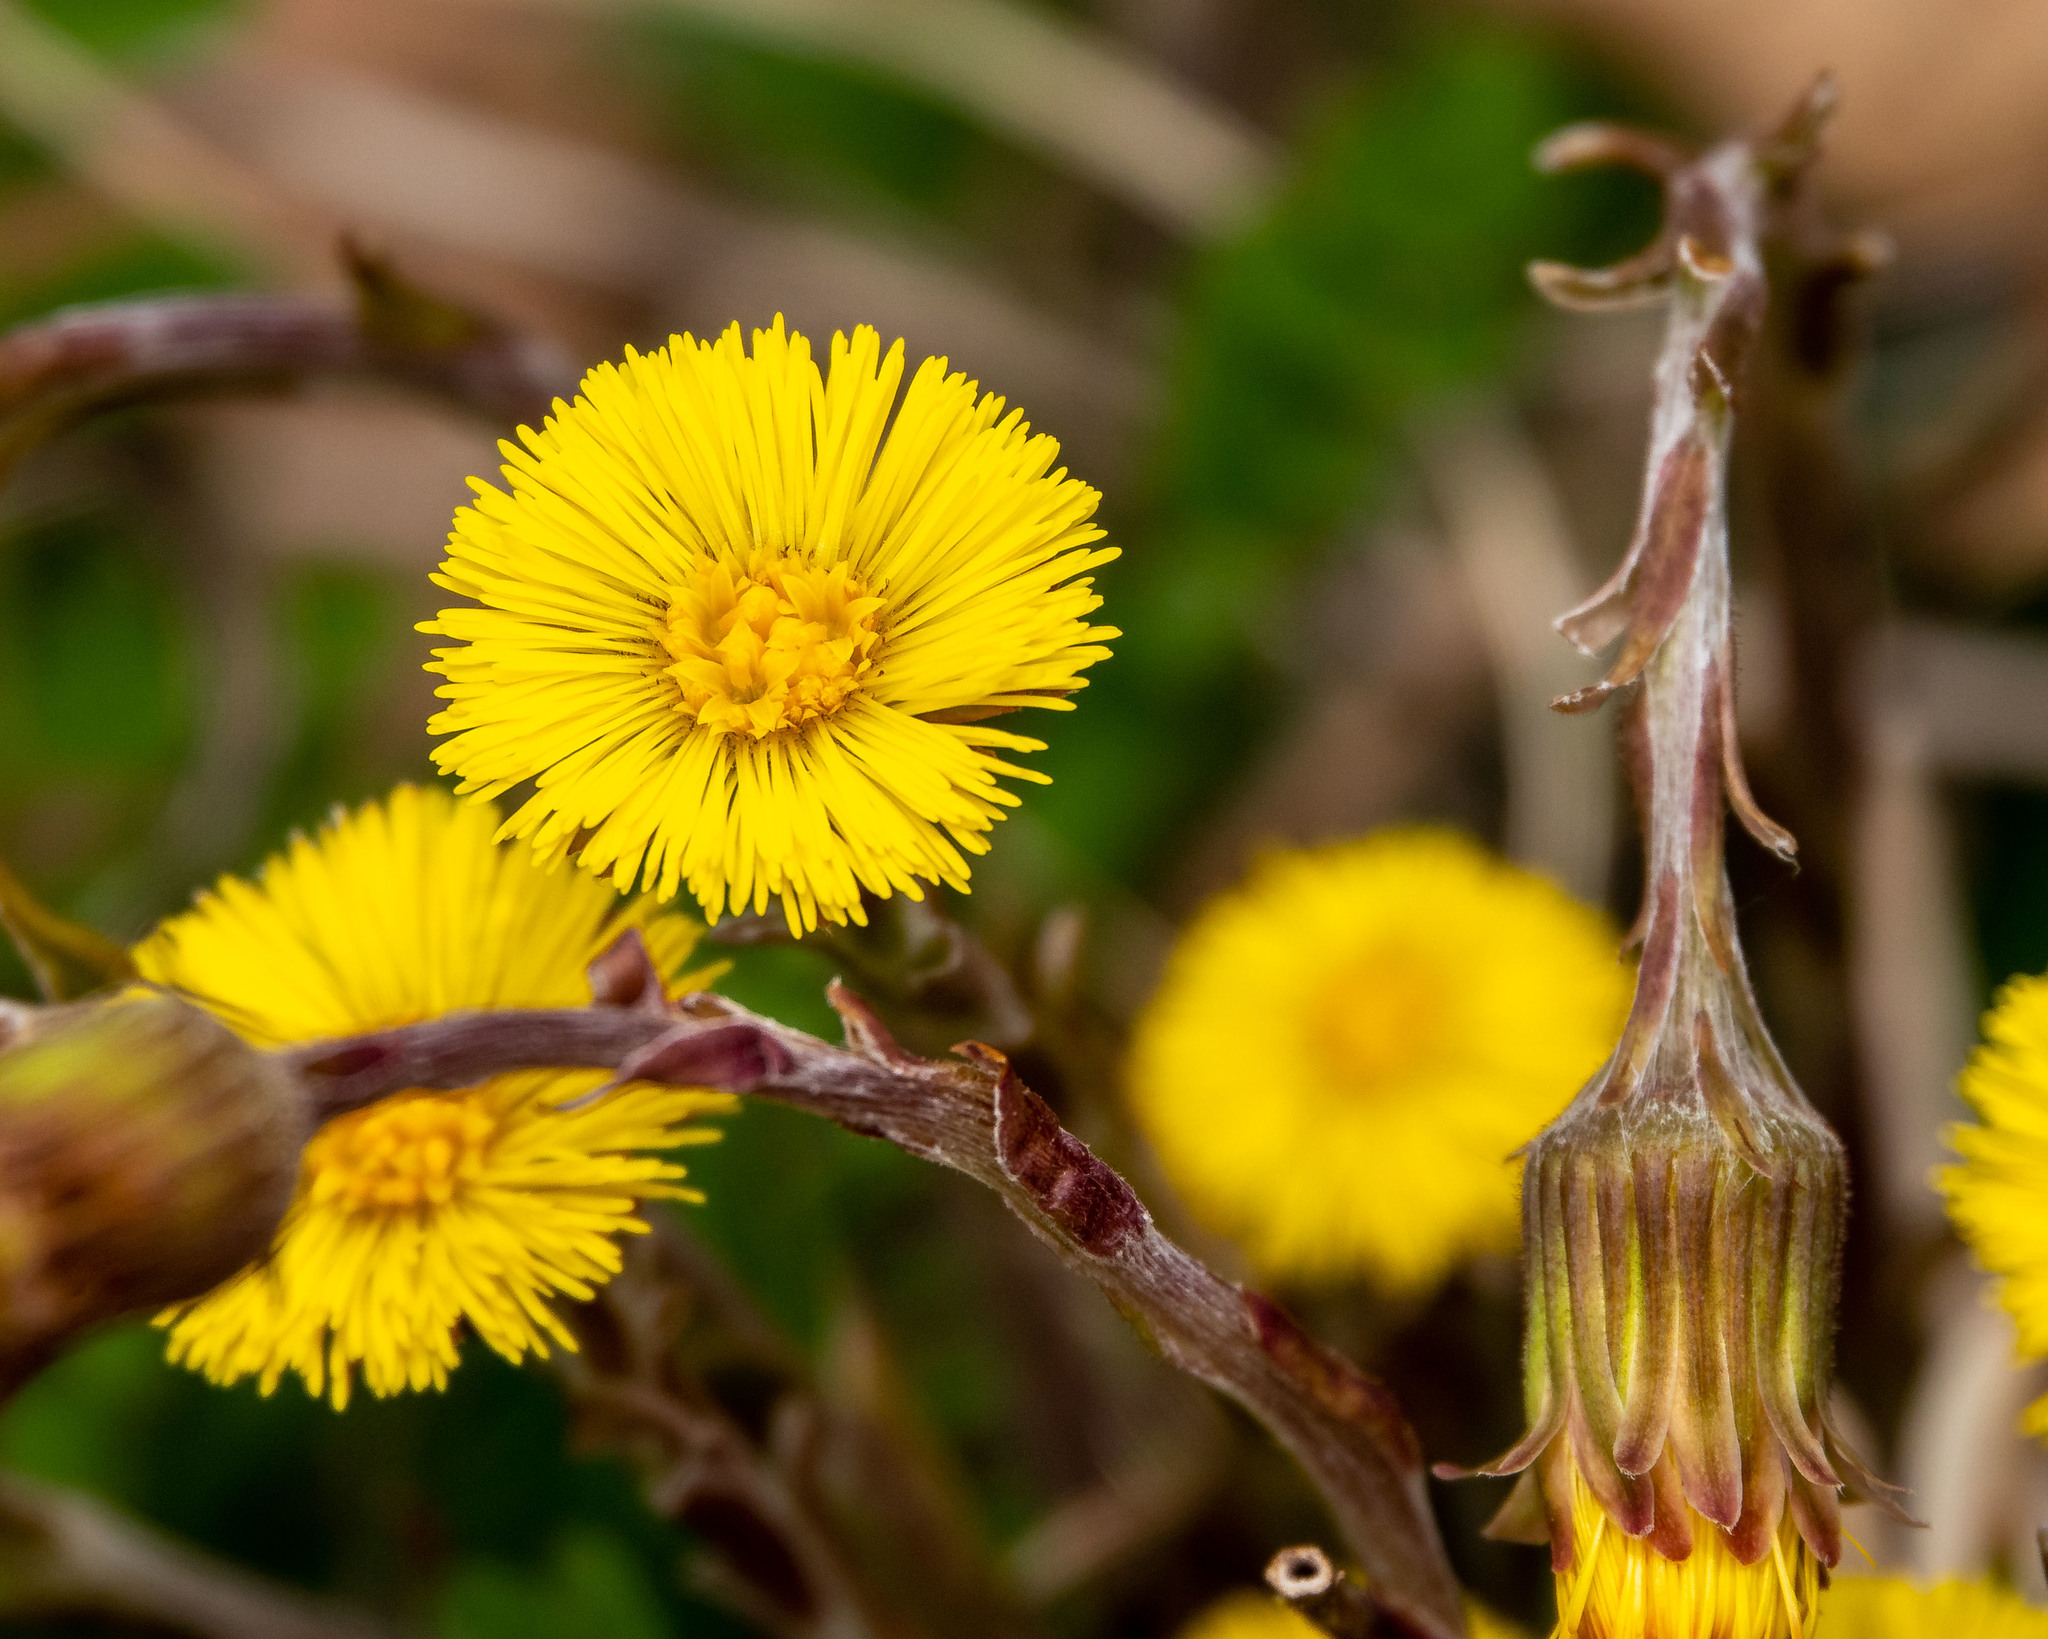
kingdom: Plantae
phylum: Tracheophyta
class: Magnoliopsida
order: Asterales
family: Asteraceae
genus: Tussilago
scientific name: Tussilago farfara
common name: Coltsfoot
